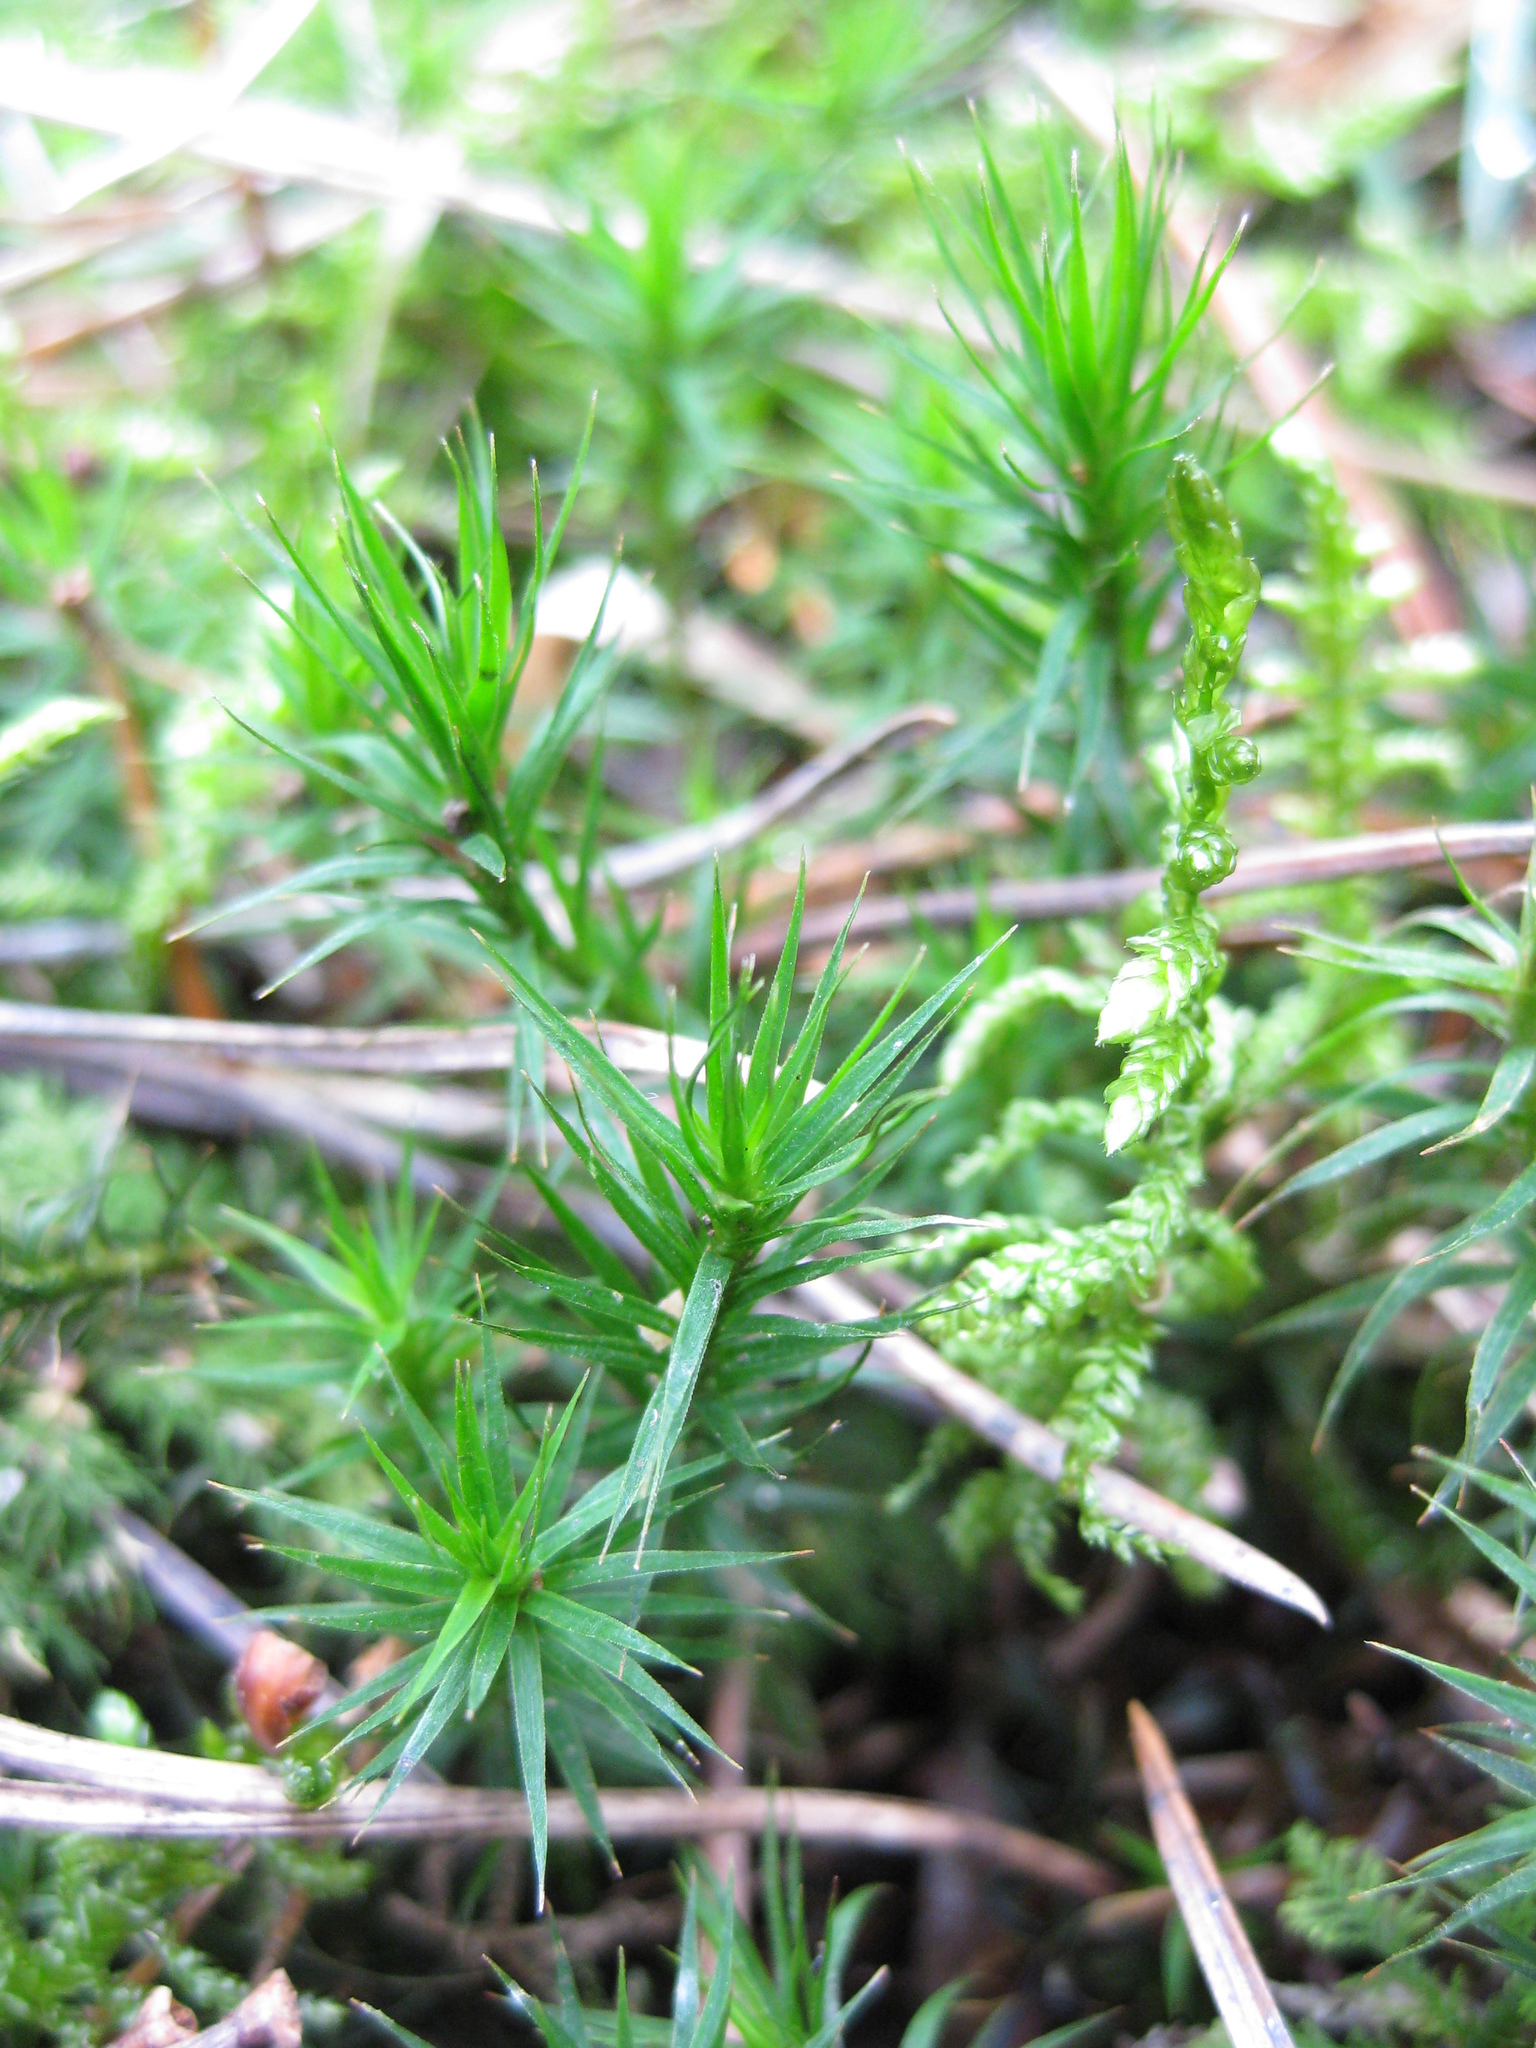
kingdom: Plantae
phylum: Bryophyta
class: Polytrichopsida
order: Polytrichales
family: Polytrichaceae
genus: Polytrichum
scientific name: Polytrichum formosum
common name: Bank haircap moss
